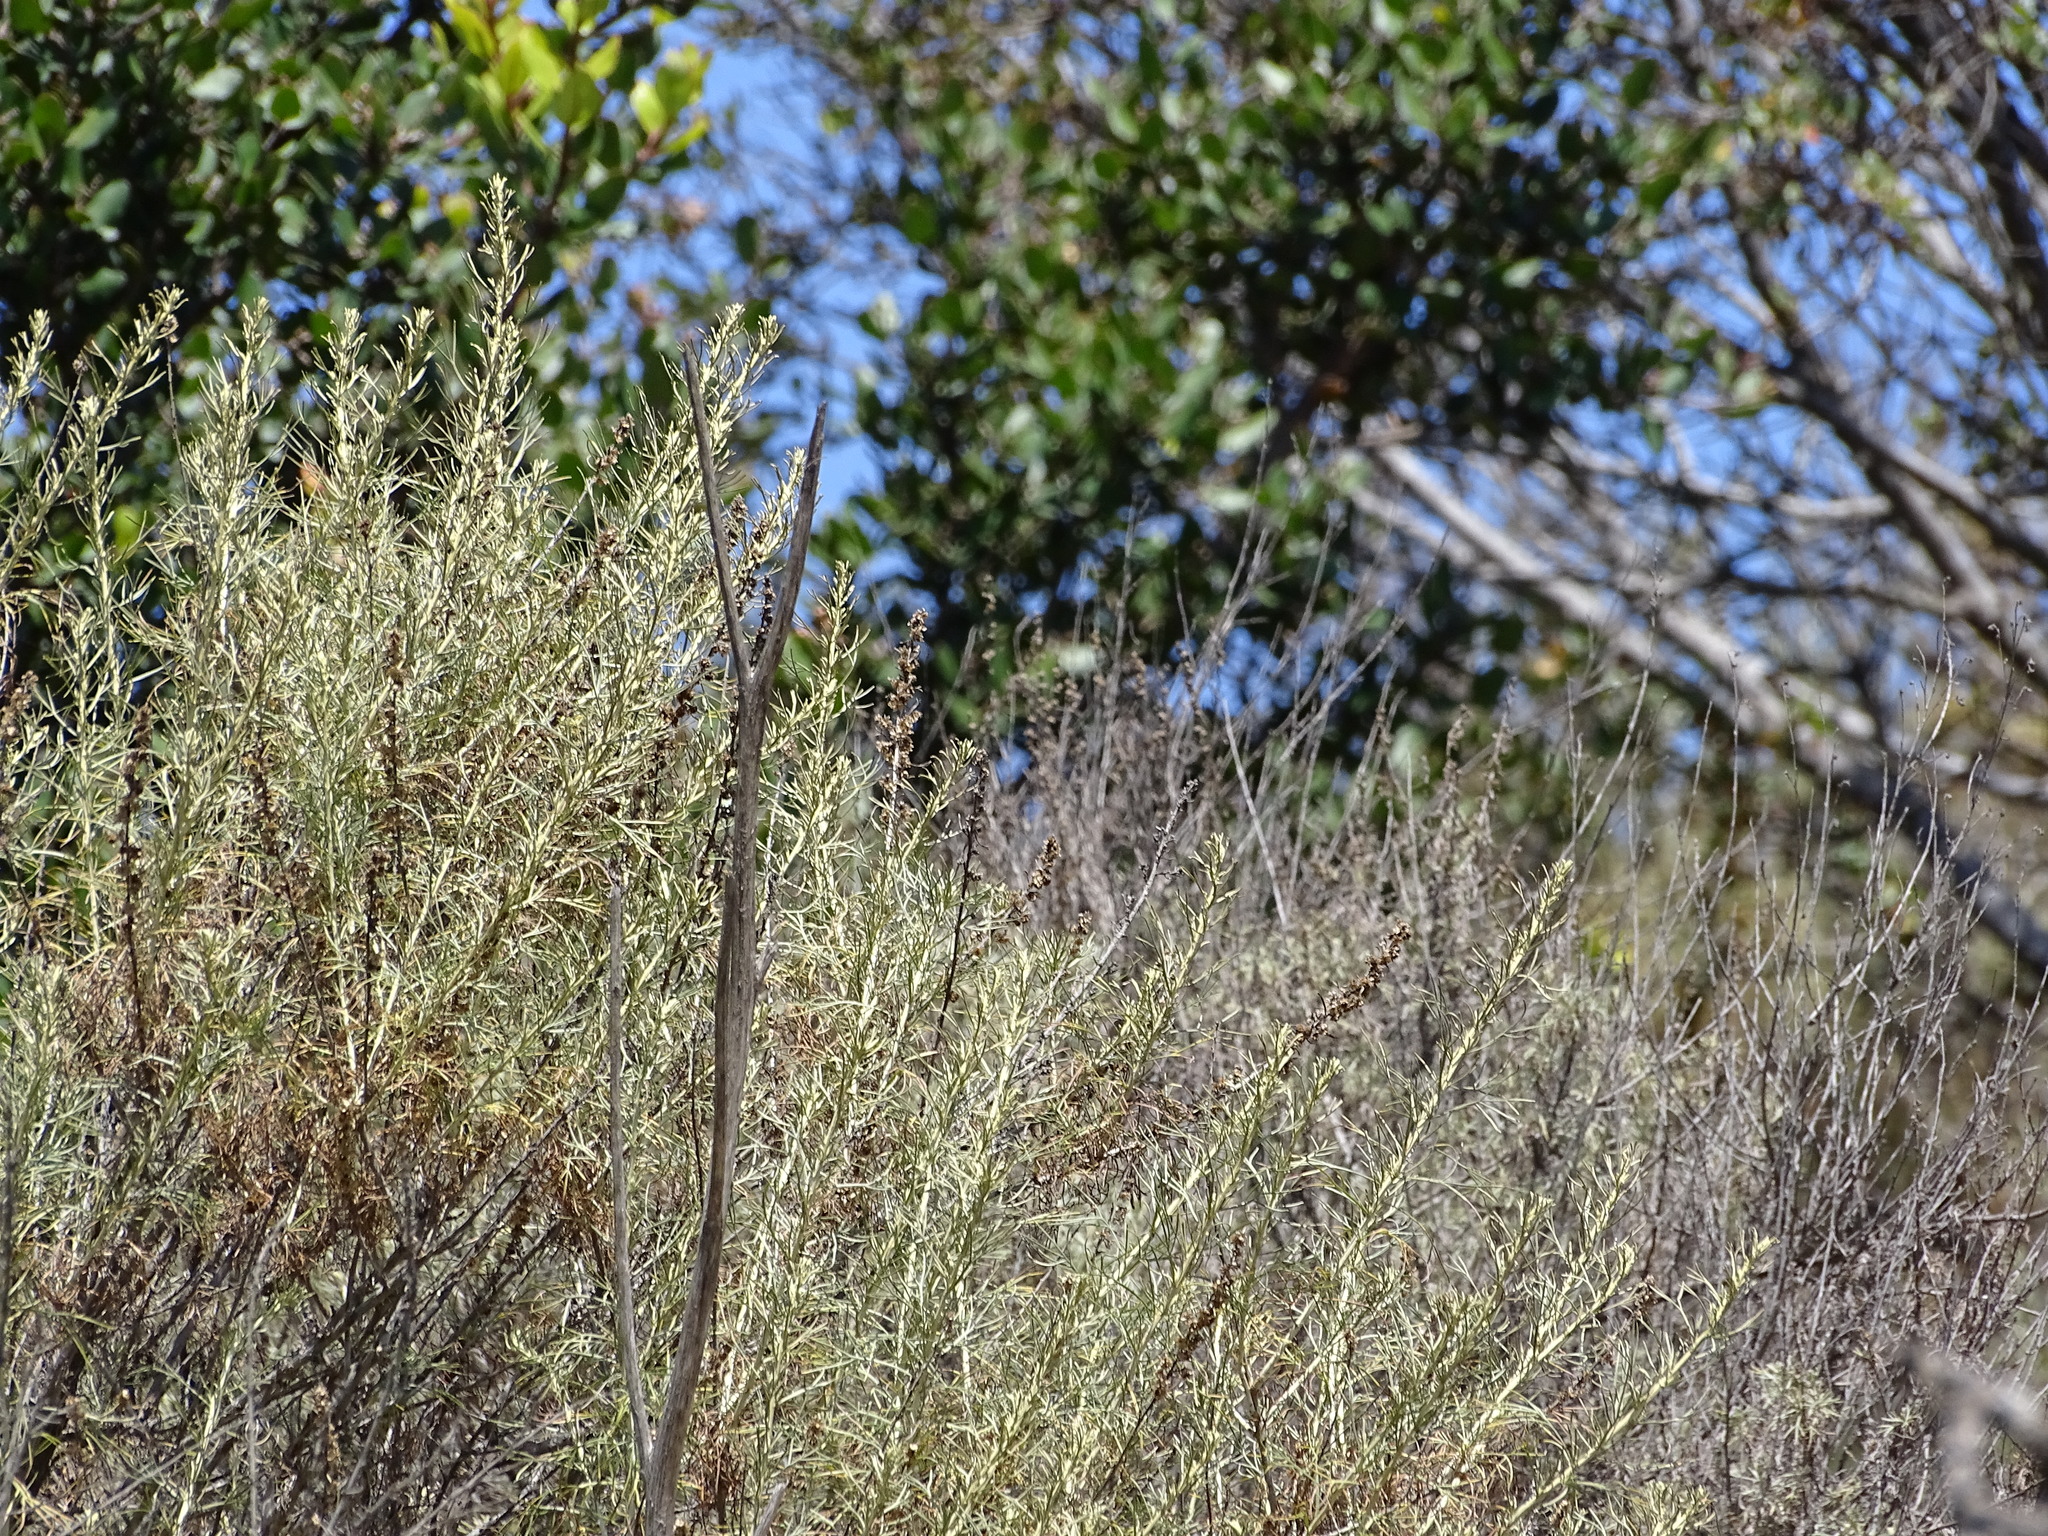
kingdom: Plantae
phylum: Tracheophyta
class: Magnoliopsida
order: Asterales
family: Asteraceae
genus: Artemisia
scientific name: Artemisia californica
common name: California sagebrush
